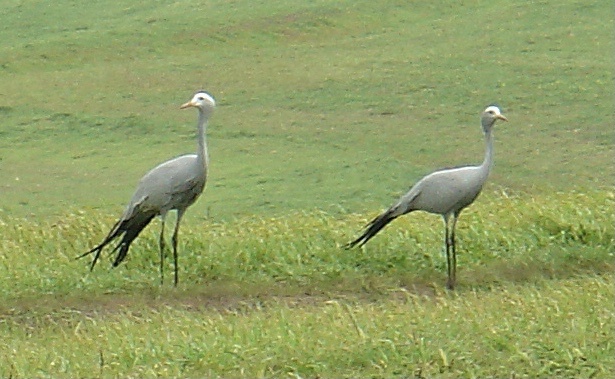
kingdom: Animalia
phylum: Chordata
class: Aves
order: Gruiformes
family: Gruidae
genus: Anthropoides
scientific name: Anthropoides paradiseus
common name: Blue crane
